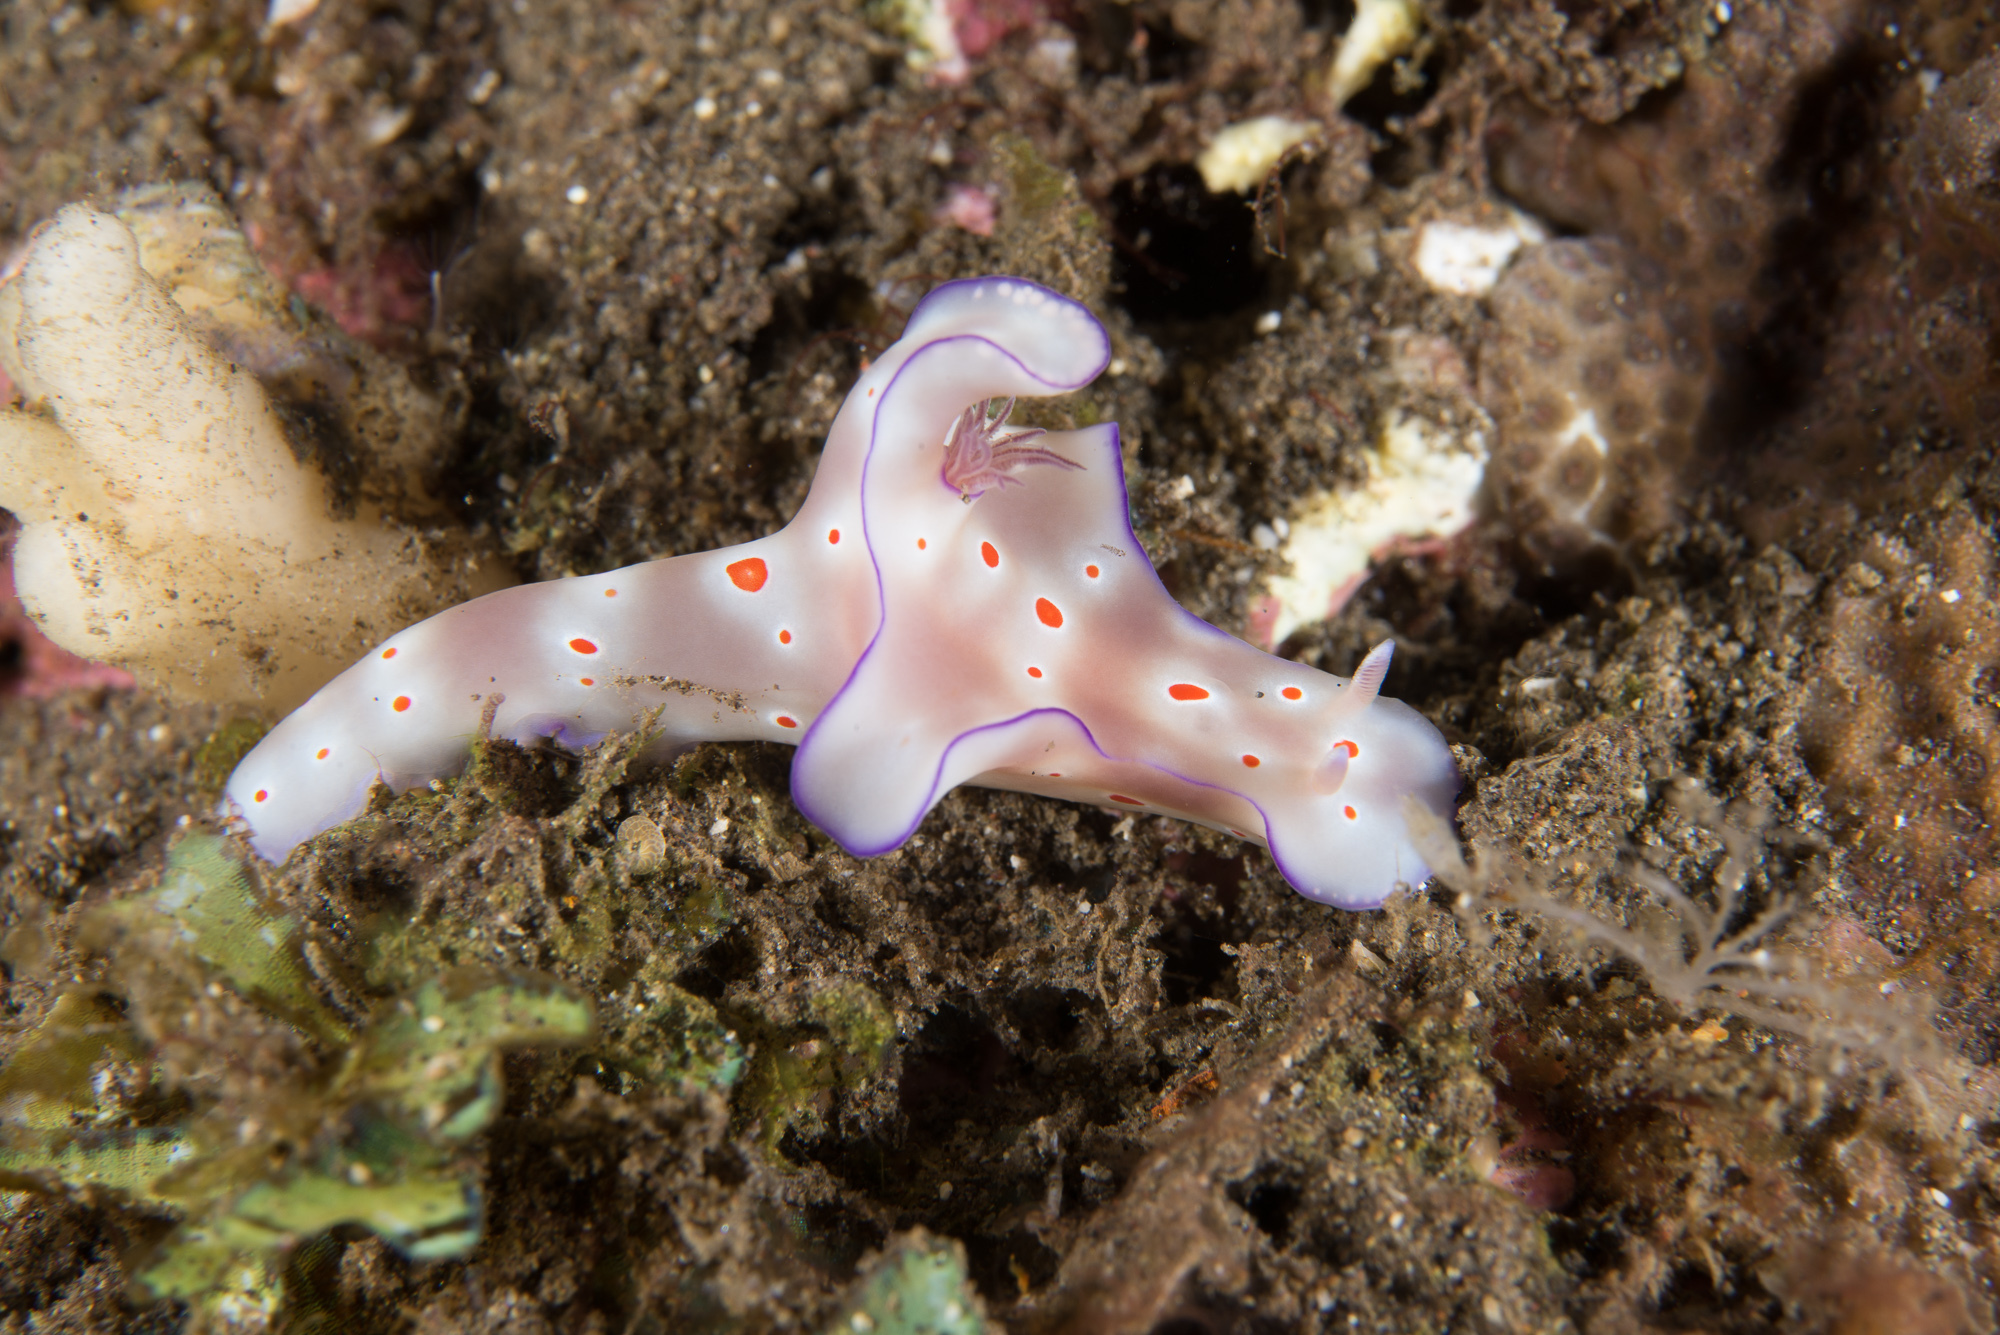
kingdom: Animalia
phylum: Mollusca
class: Gastropoda
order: Nudibranchia
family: Chromodorididae
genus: Ceratosoma
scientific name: Ceratosoma trilobatum
